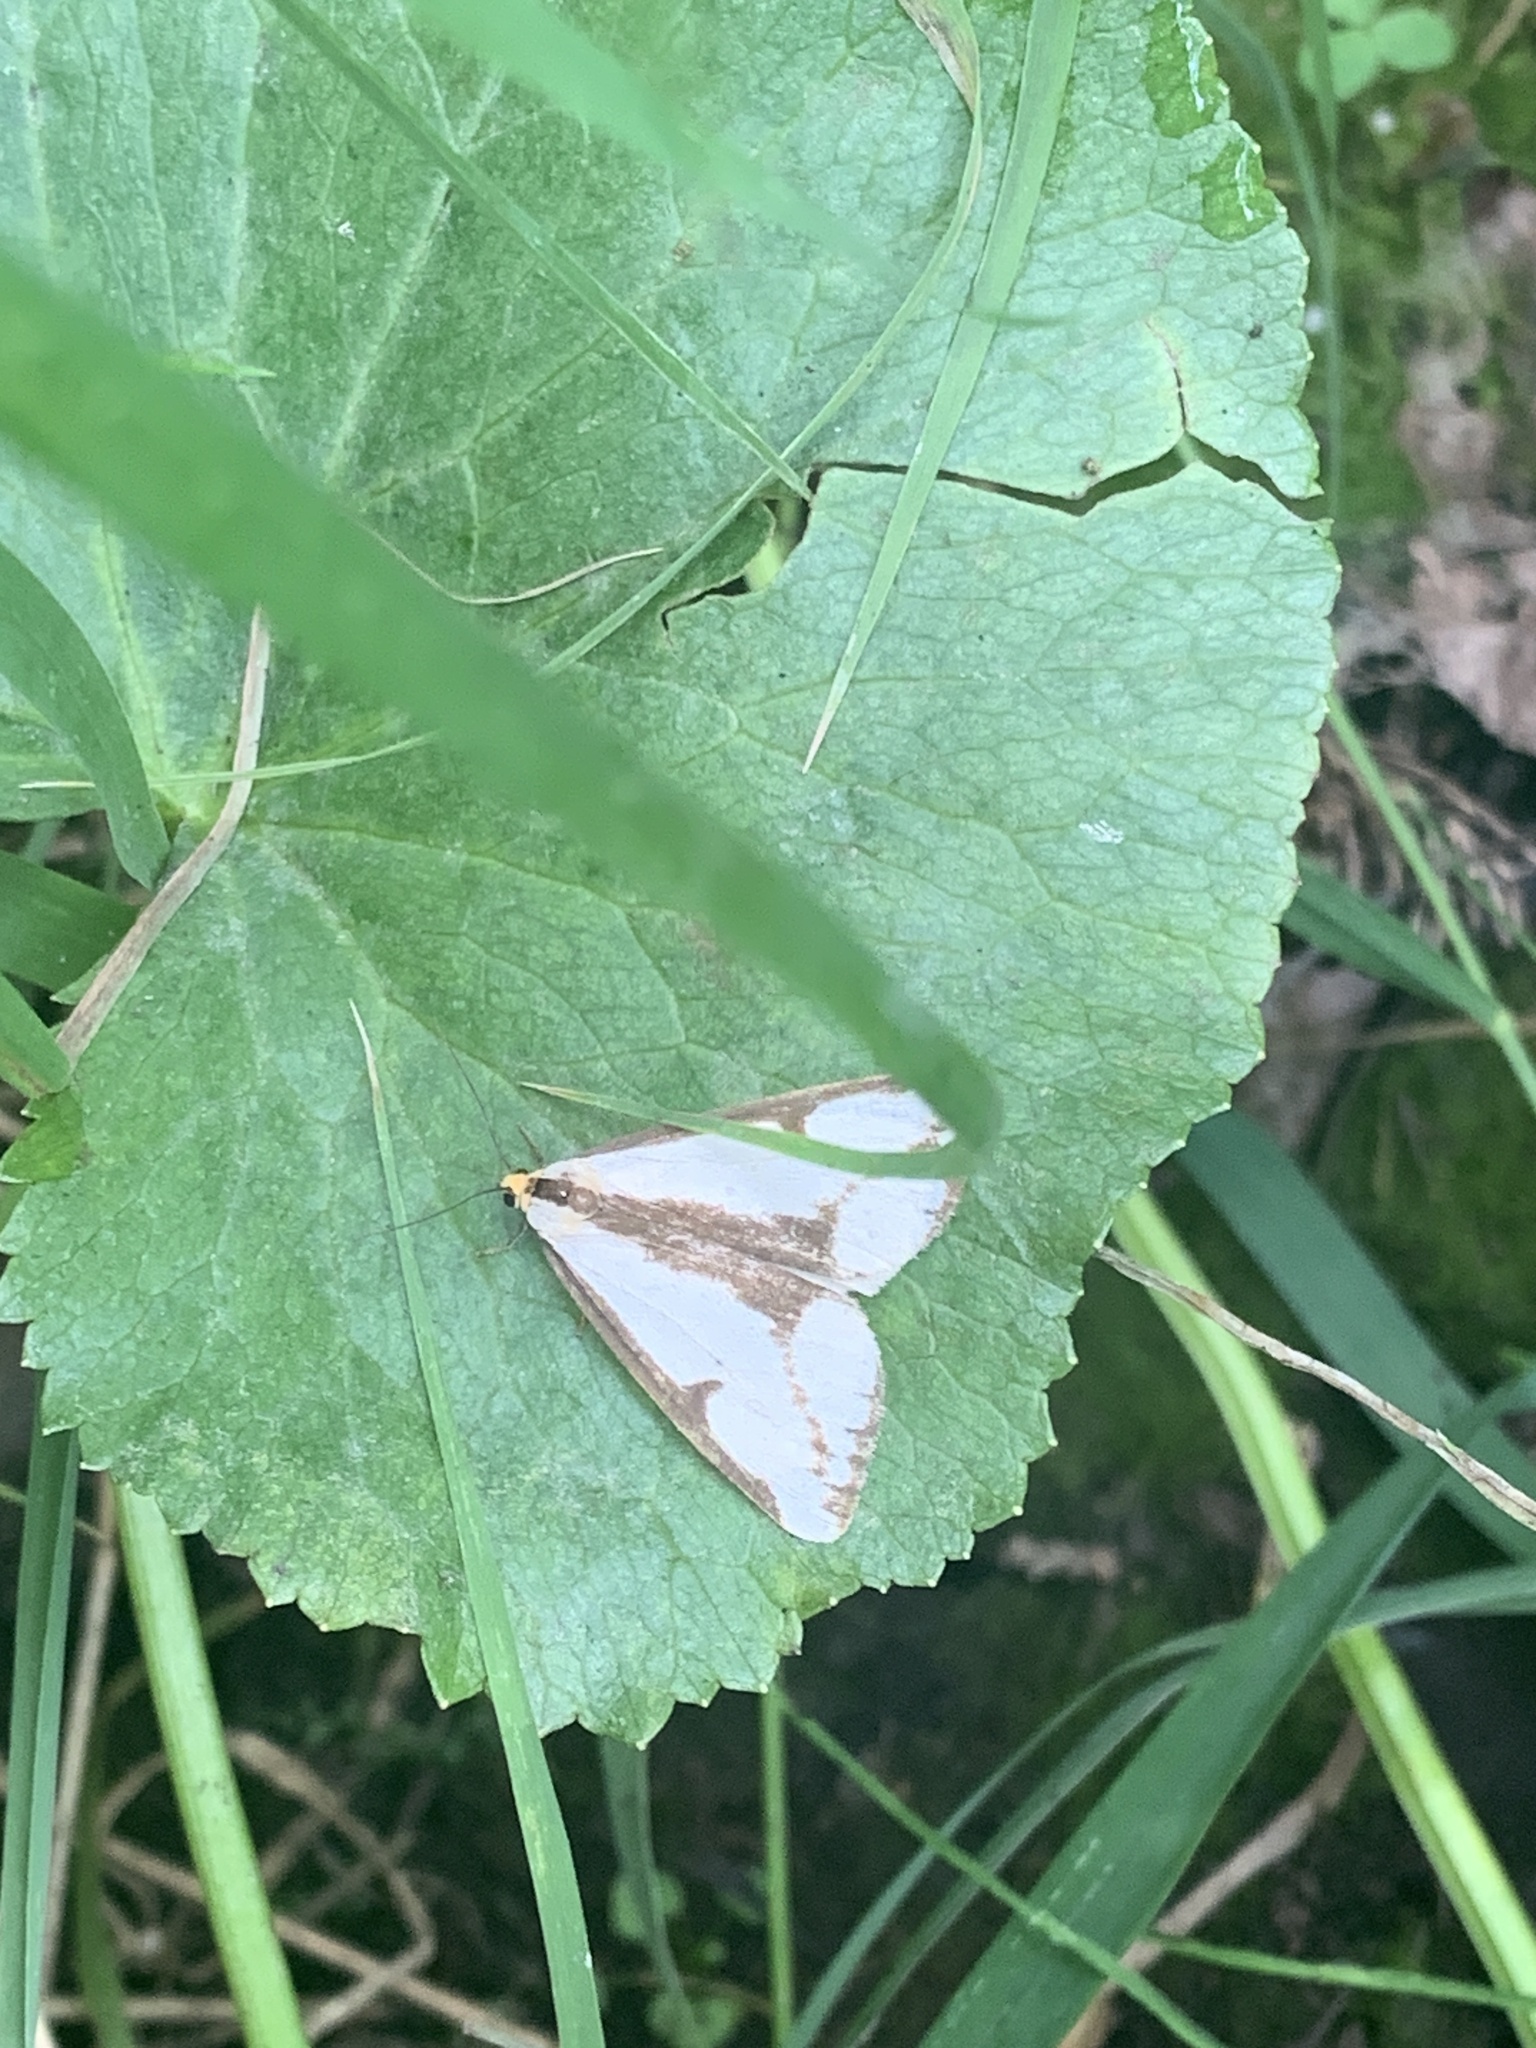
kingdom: Animalia
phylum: Arthropoda
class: Insecta
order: Lepidoptera
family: Erebidae
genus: Haploa
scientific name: Haploa lecontei
